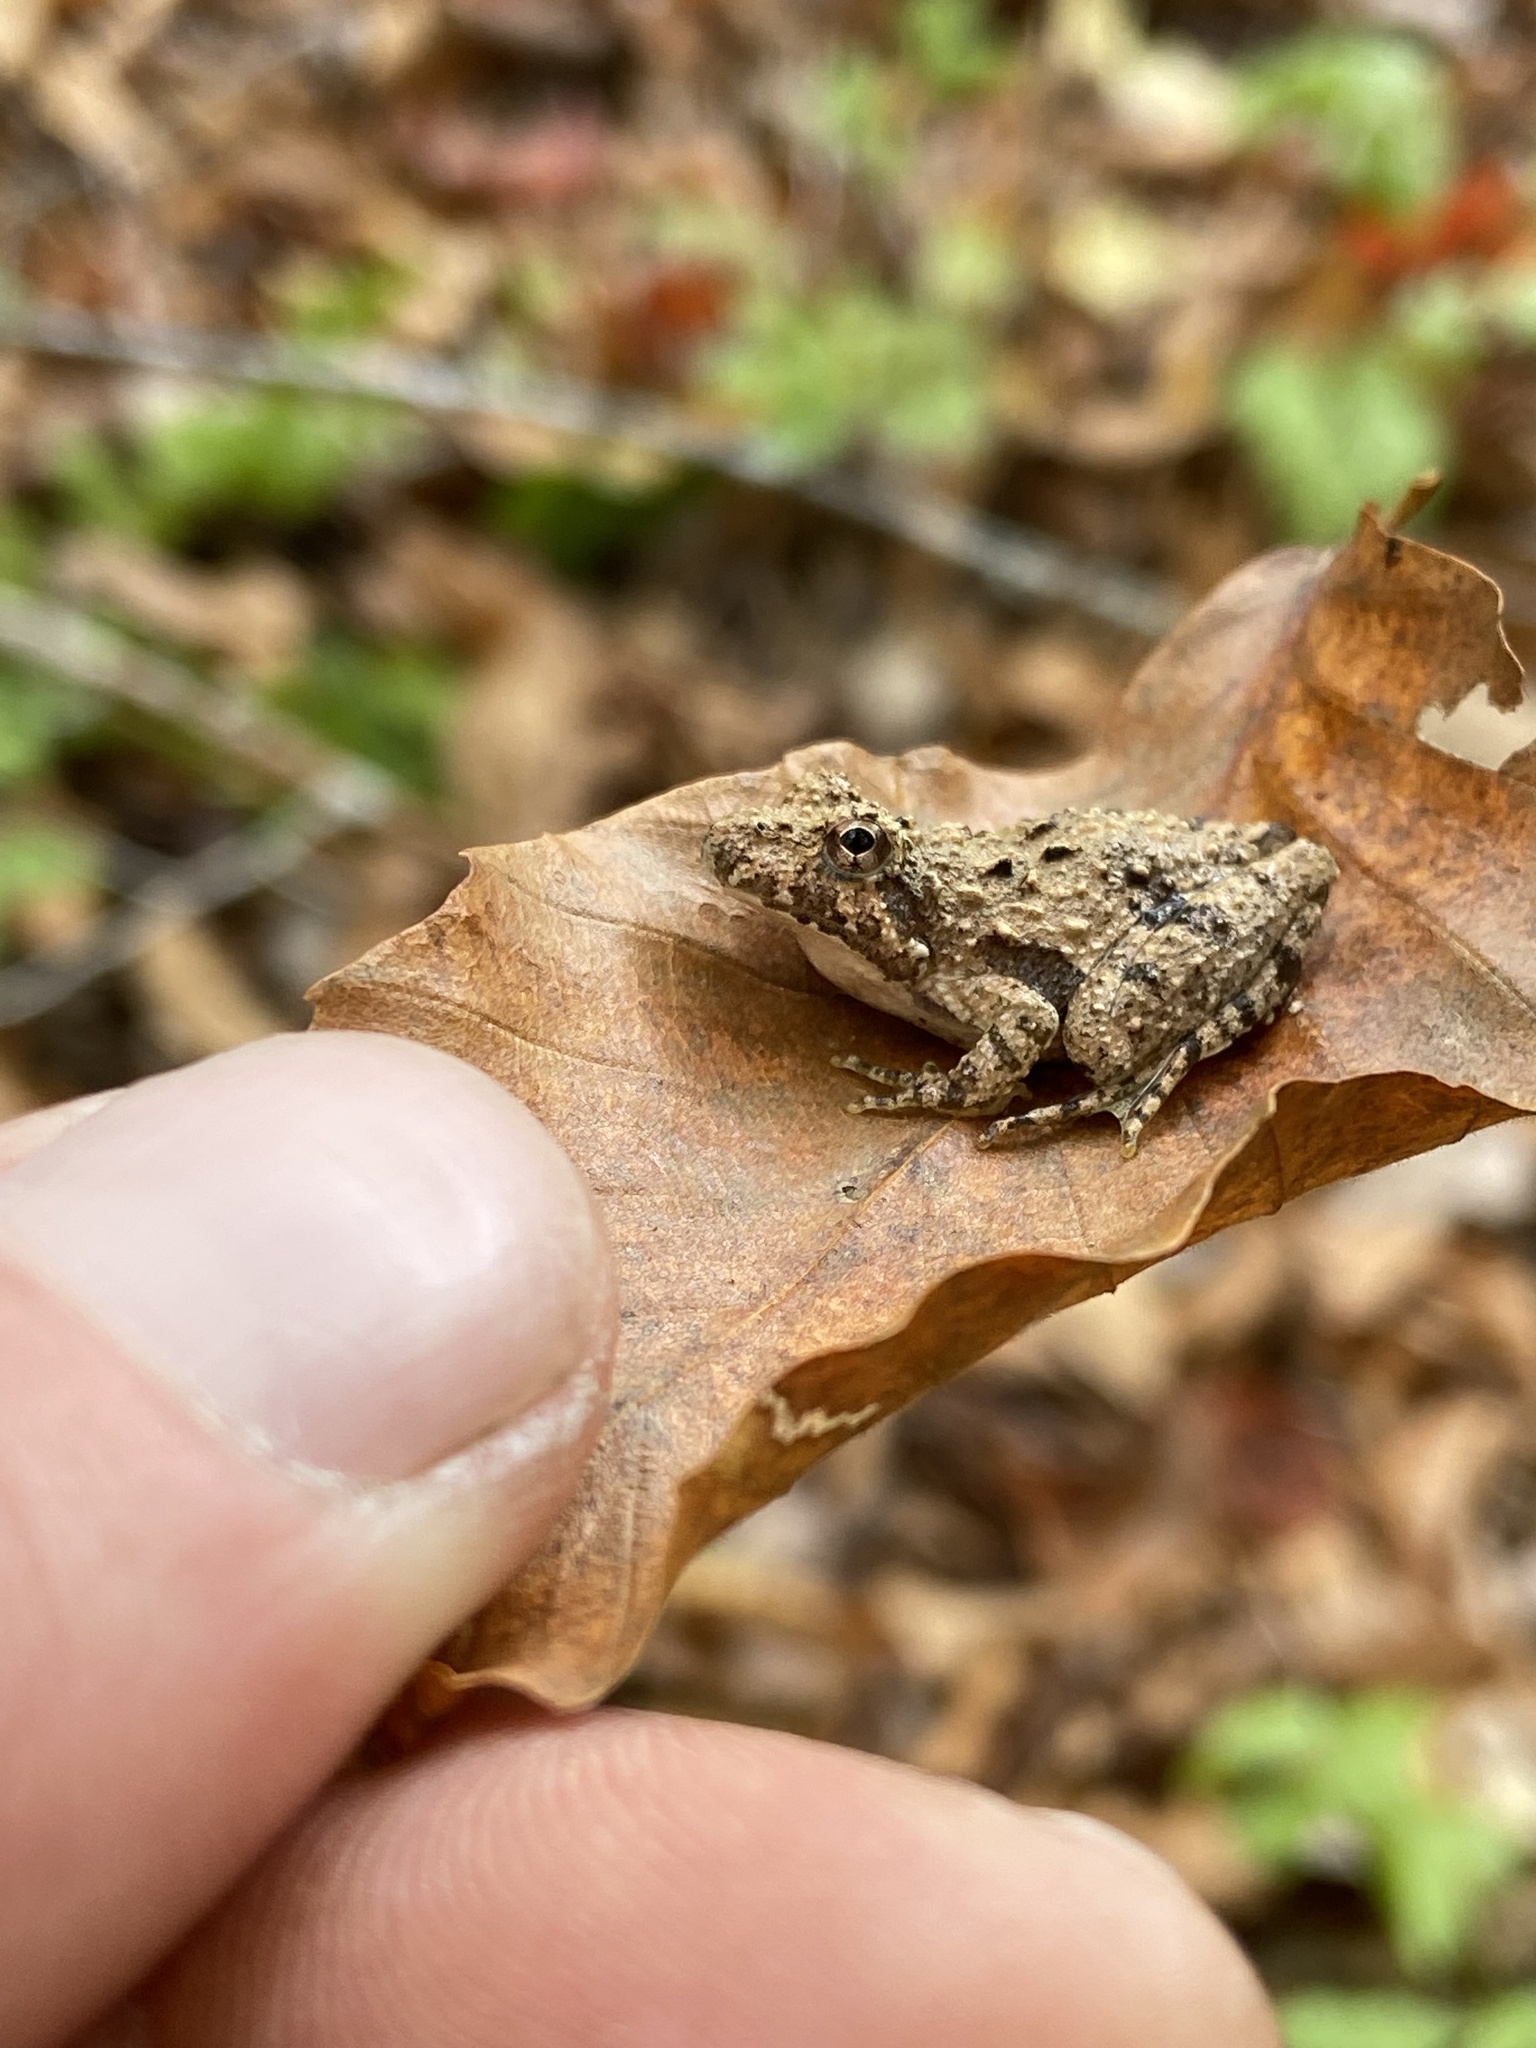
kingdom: Animalia
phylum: Chordata
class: Amphibia
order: Anura
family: Hylidae
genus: Acris
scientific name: Acris crepitans
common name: Northern cricket frog
